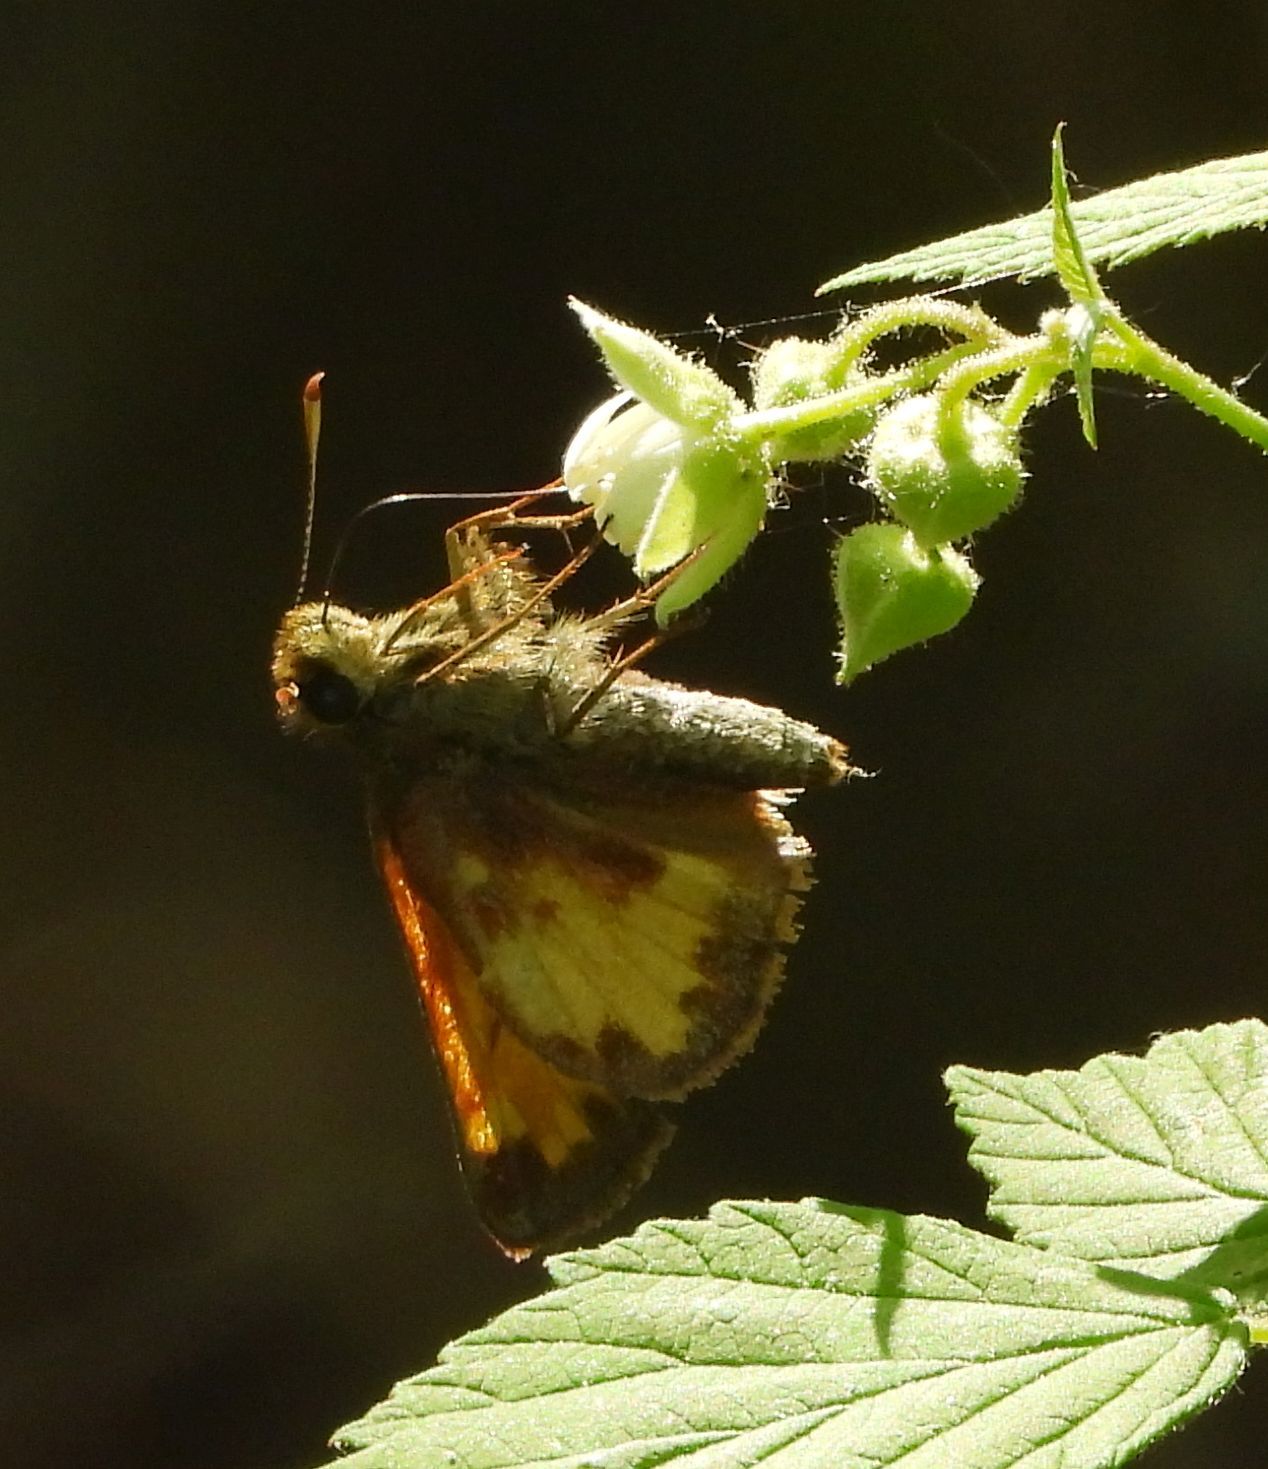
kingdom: Animalia
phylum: Arthropoda
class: Insecta
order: Lepidoptera
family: Hesperiidae
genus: Lon
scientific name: Lon hobomok
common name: Hobomok skipper
